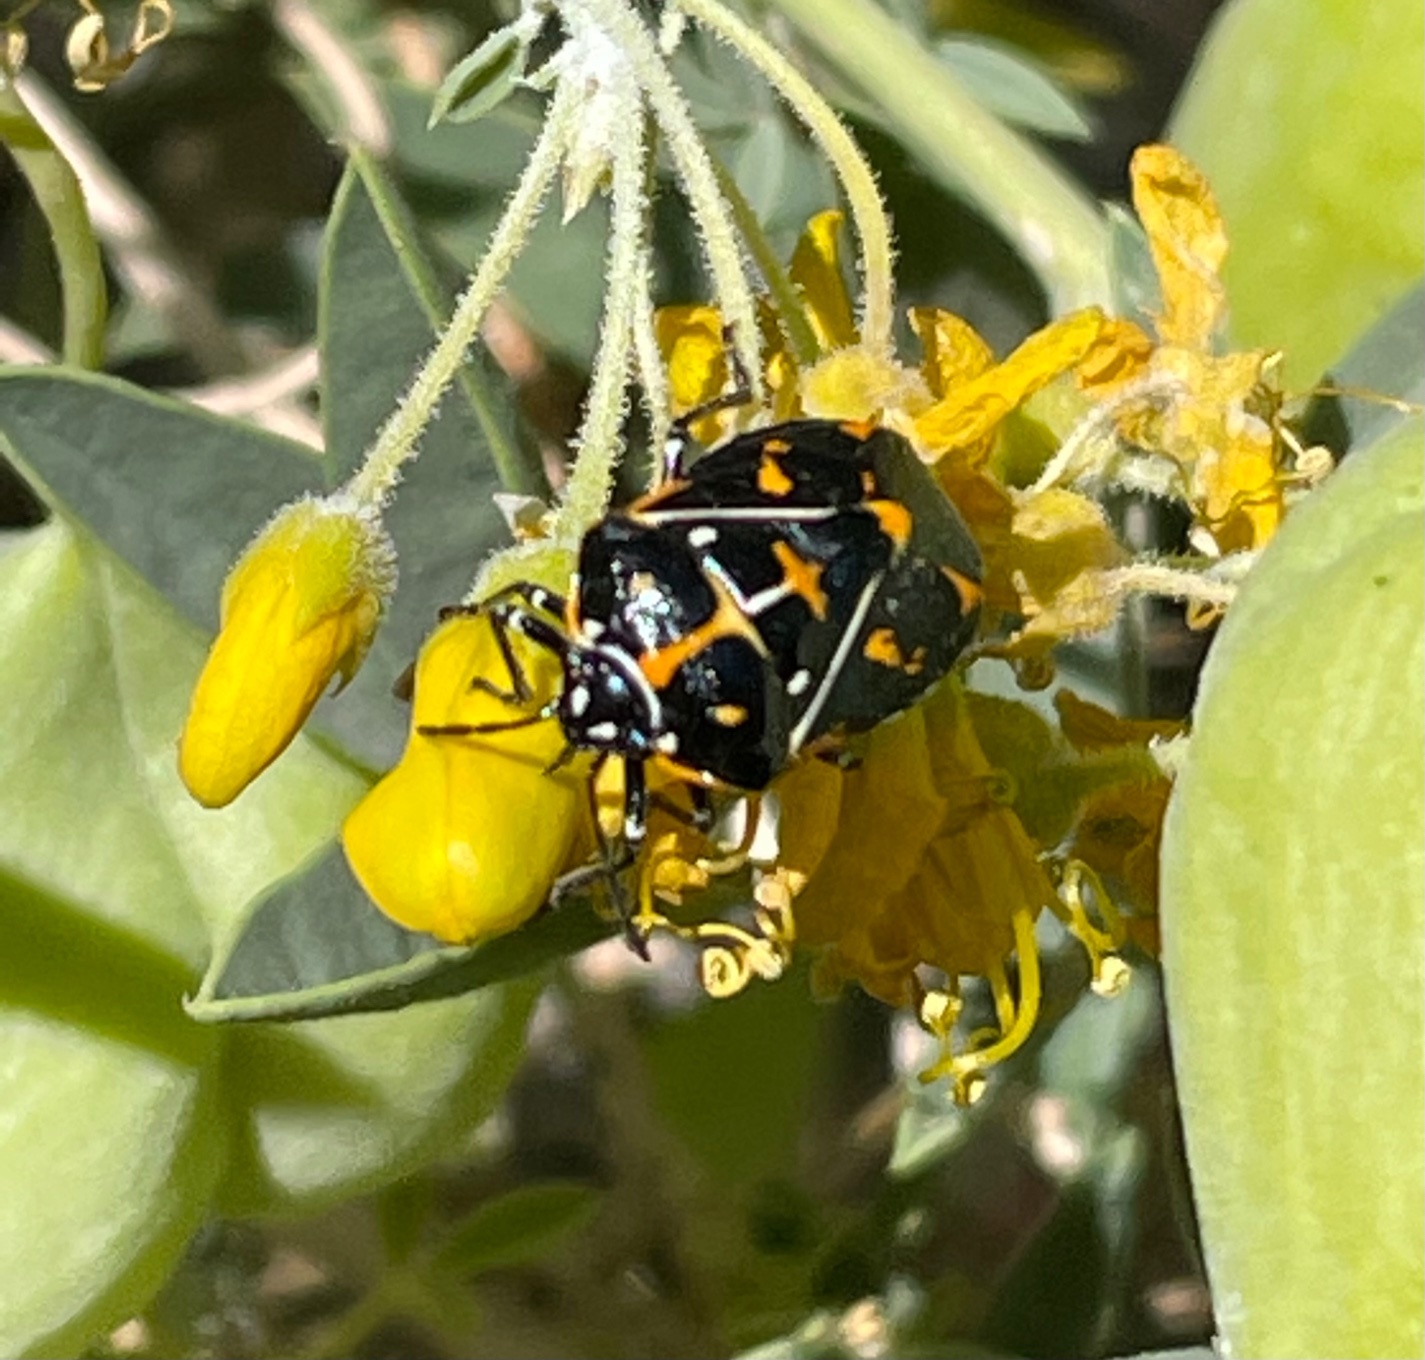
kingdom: Animalia
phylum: Arthropoda
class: Insecta
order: Hemiptera
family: Pentatomidae
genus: Murgantia
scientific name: Murgantia histrionica
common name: Harlequin bug
